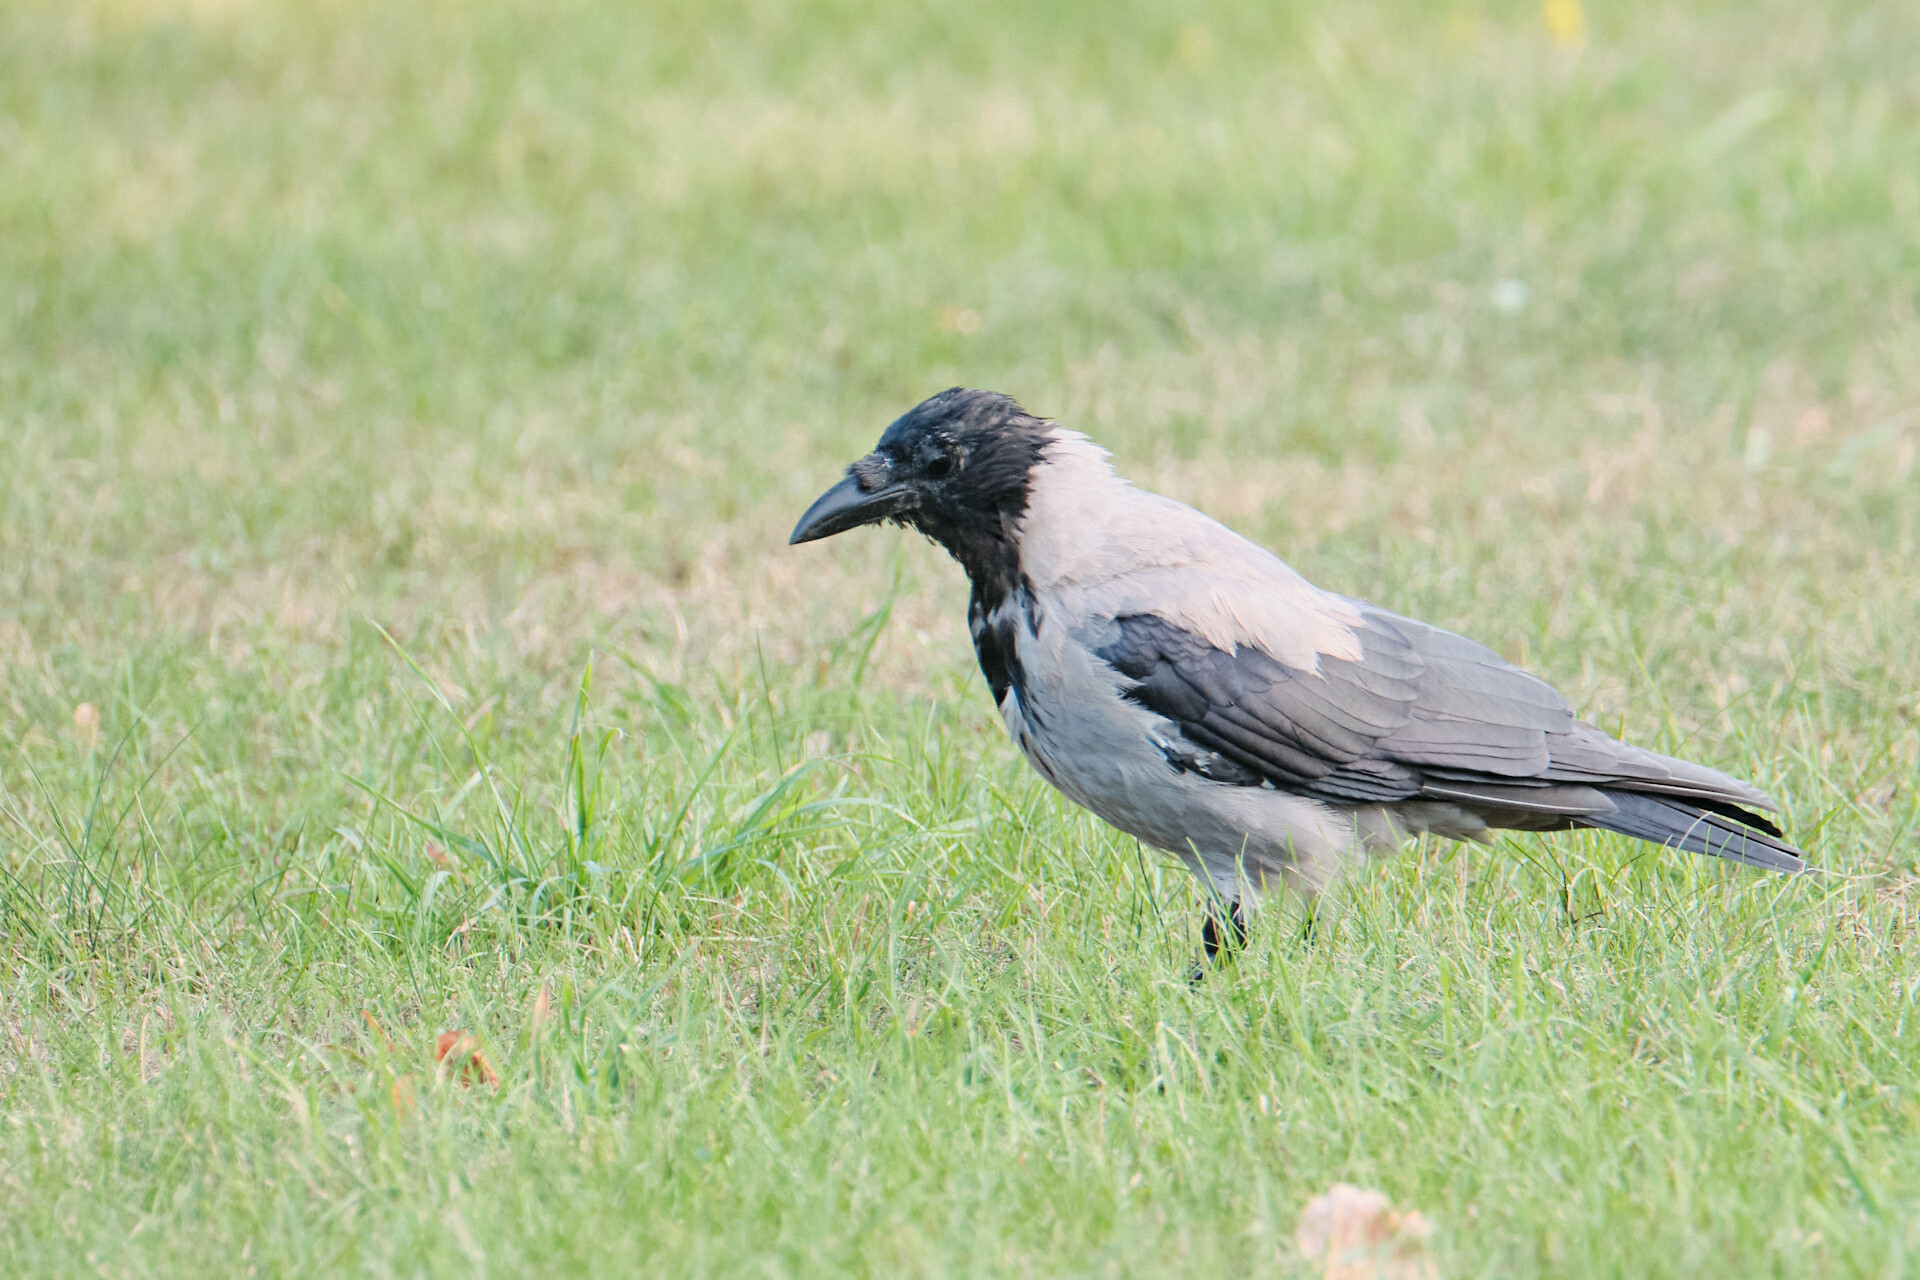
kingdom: Animalia
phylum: Chordata
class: Aves
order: Passeriformes
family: Corvidae
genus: Corvus
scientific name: Corvus cornix
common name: Hooded crow
